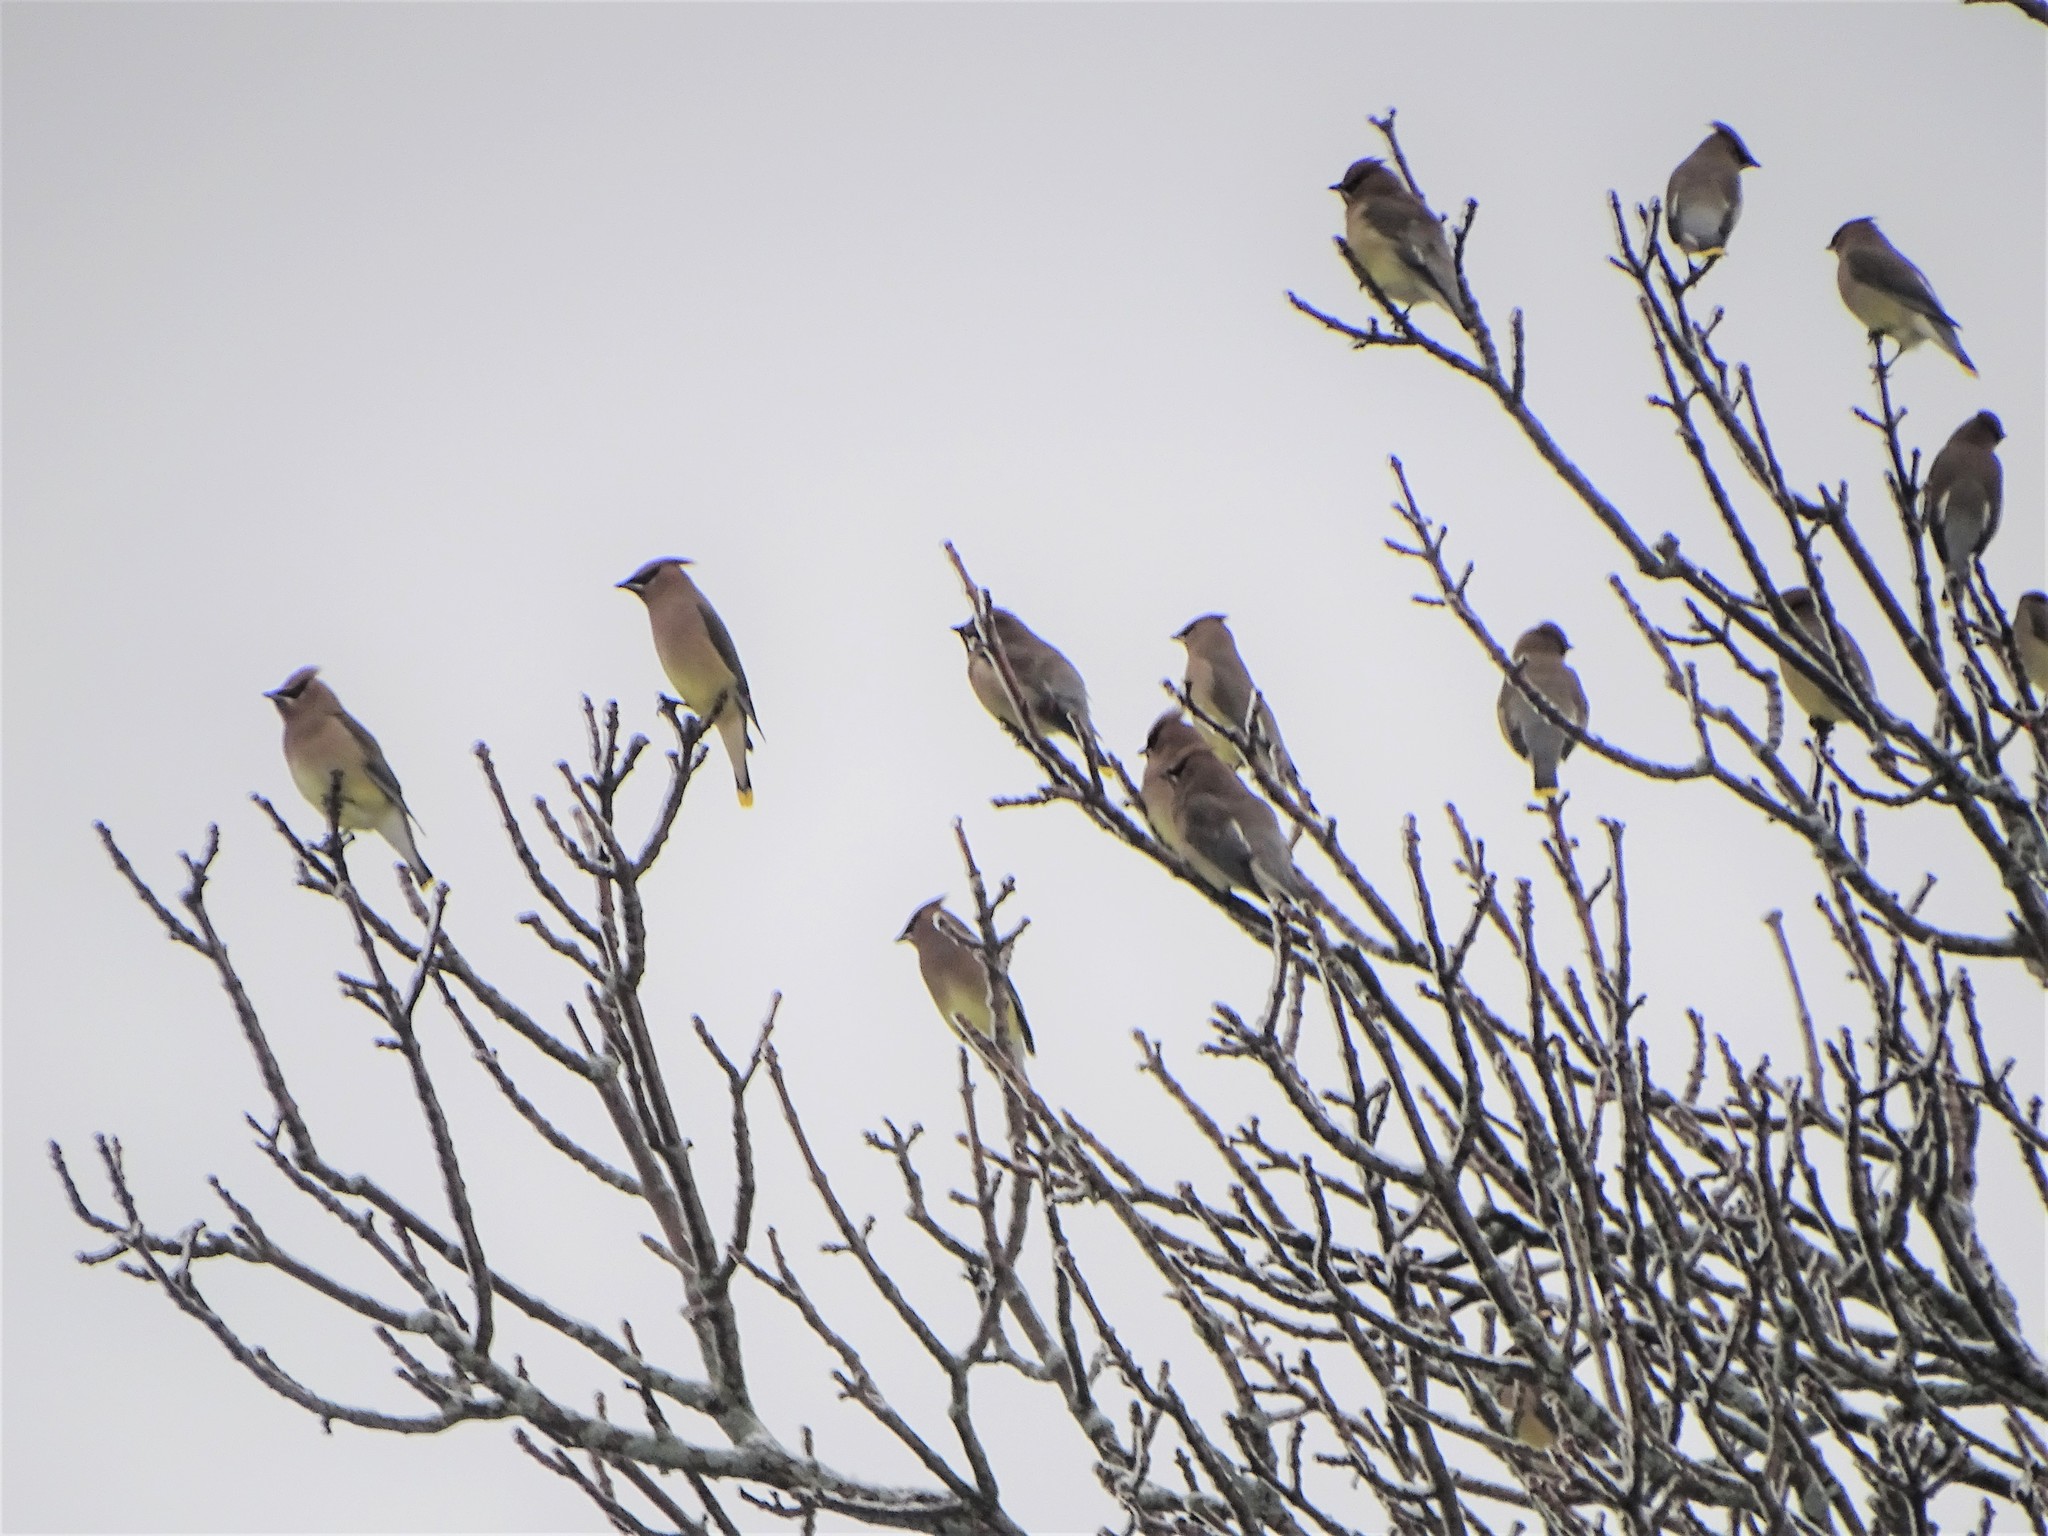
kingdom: Animalia
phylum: Chordata
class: Aves
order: Passeriformes
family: Bombycillidae
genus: Bombycilla
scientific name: Bombycilla cedrorum
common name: Cedar waxwing
